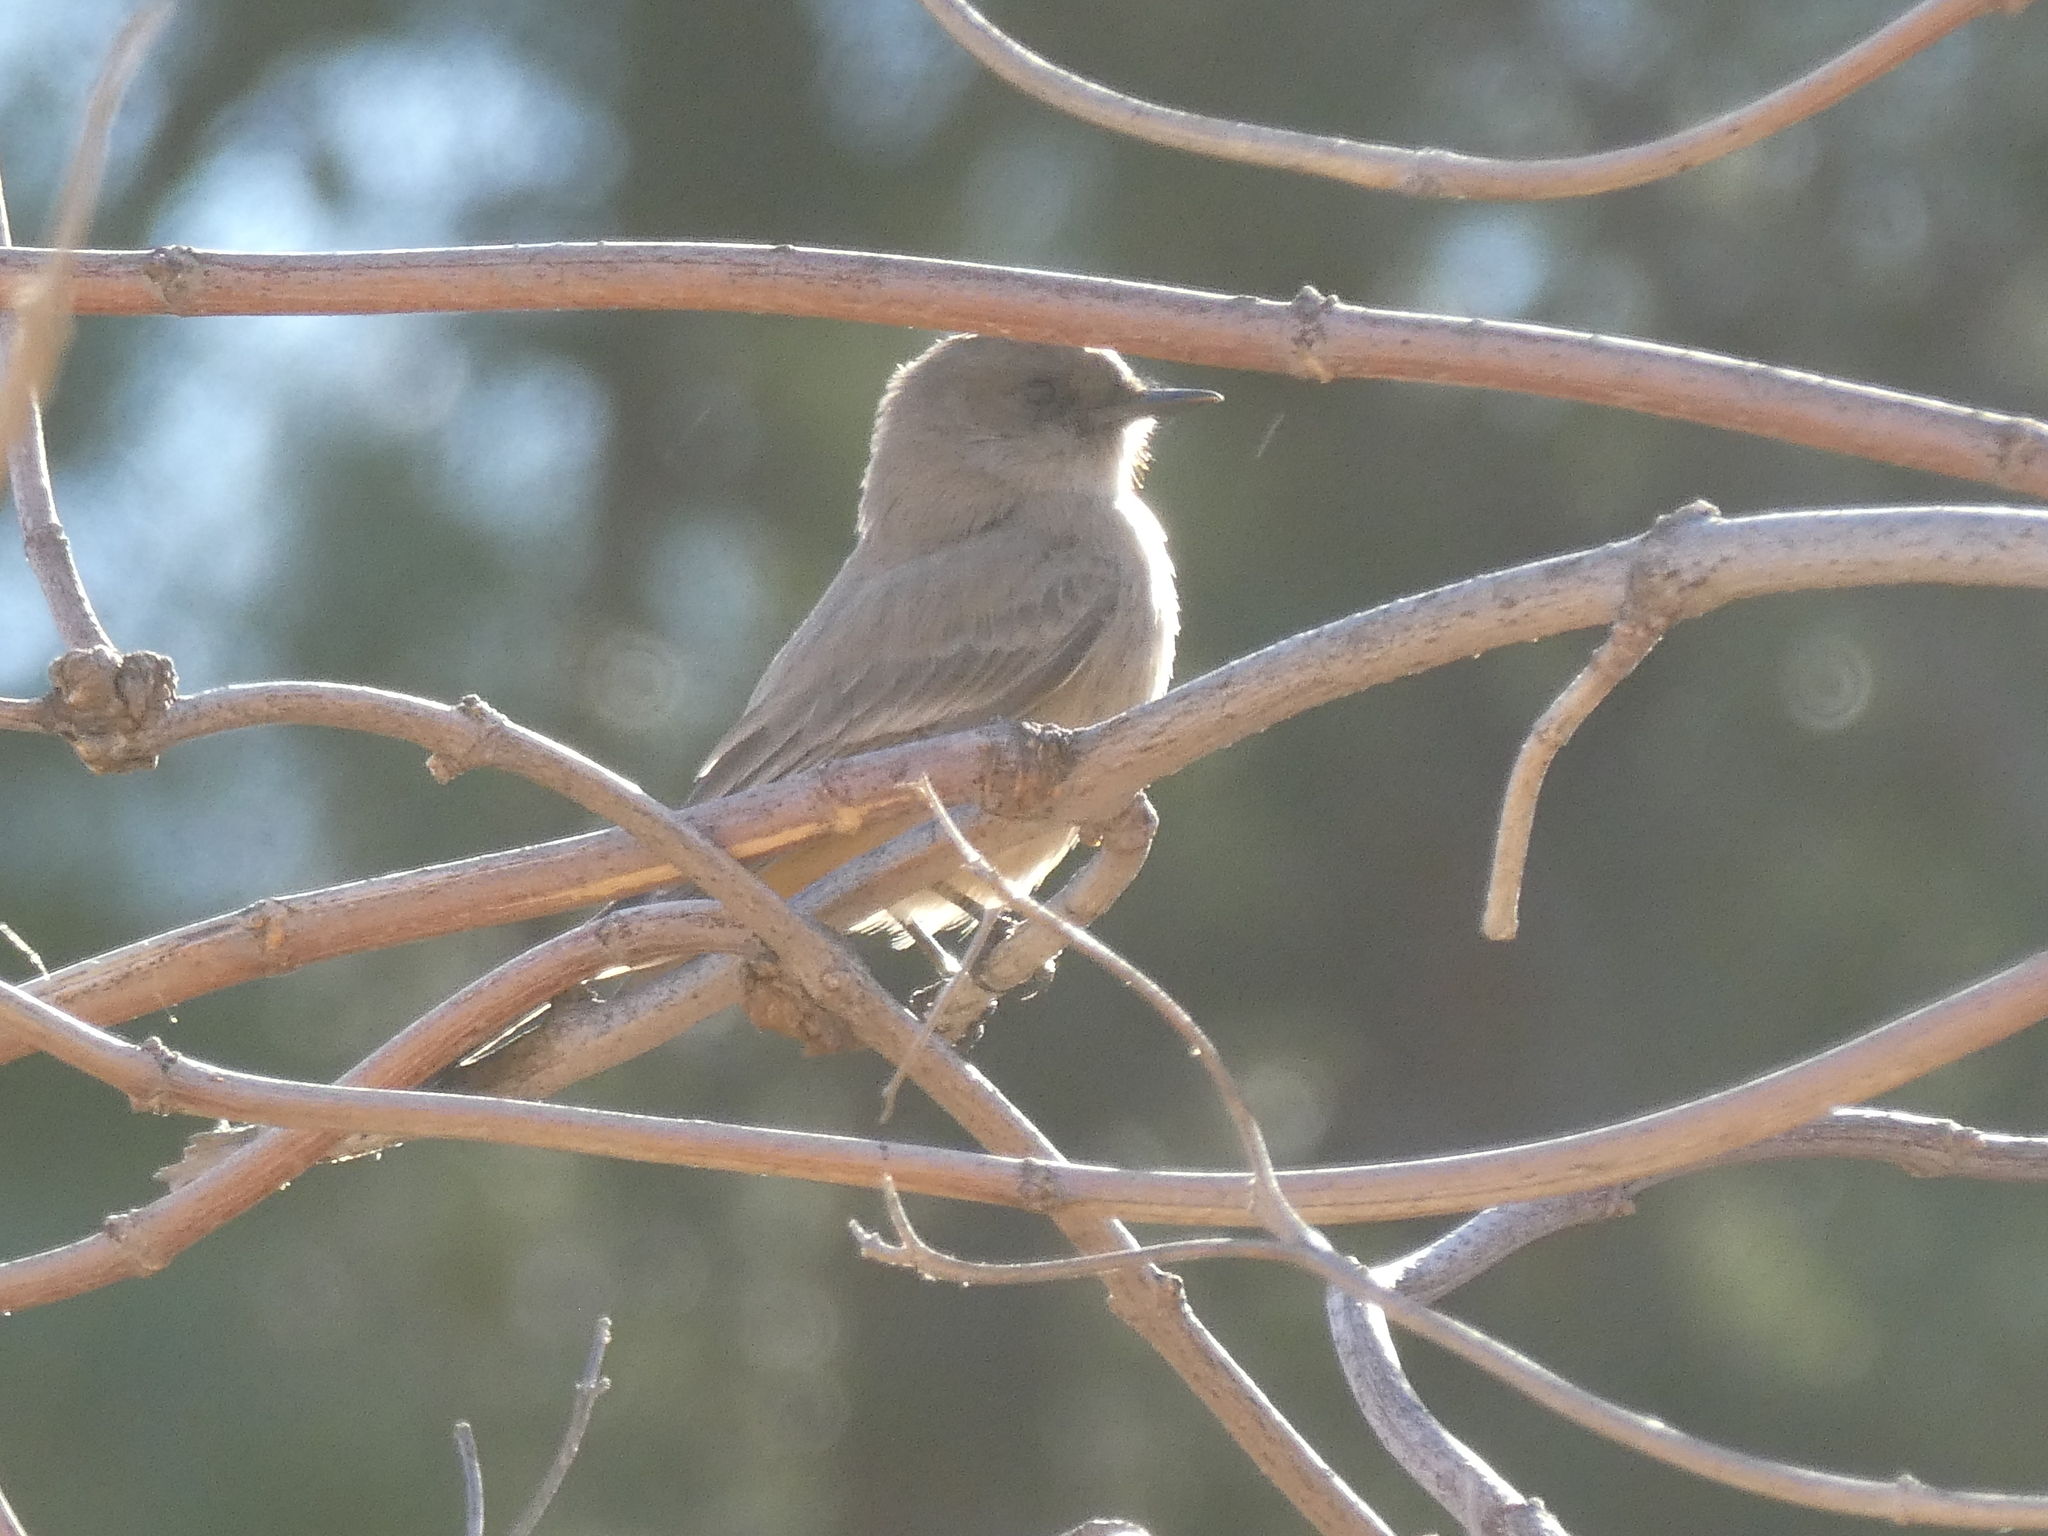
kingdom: Animalia
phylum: Chordata
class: Aves
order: Passeriformes
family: Tyrannidae
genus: Sayornis
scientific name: Sayornis saya
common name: Say's phoebe
